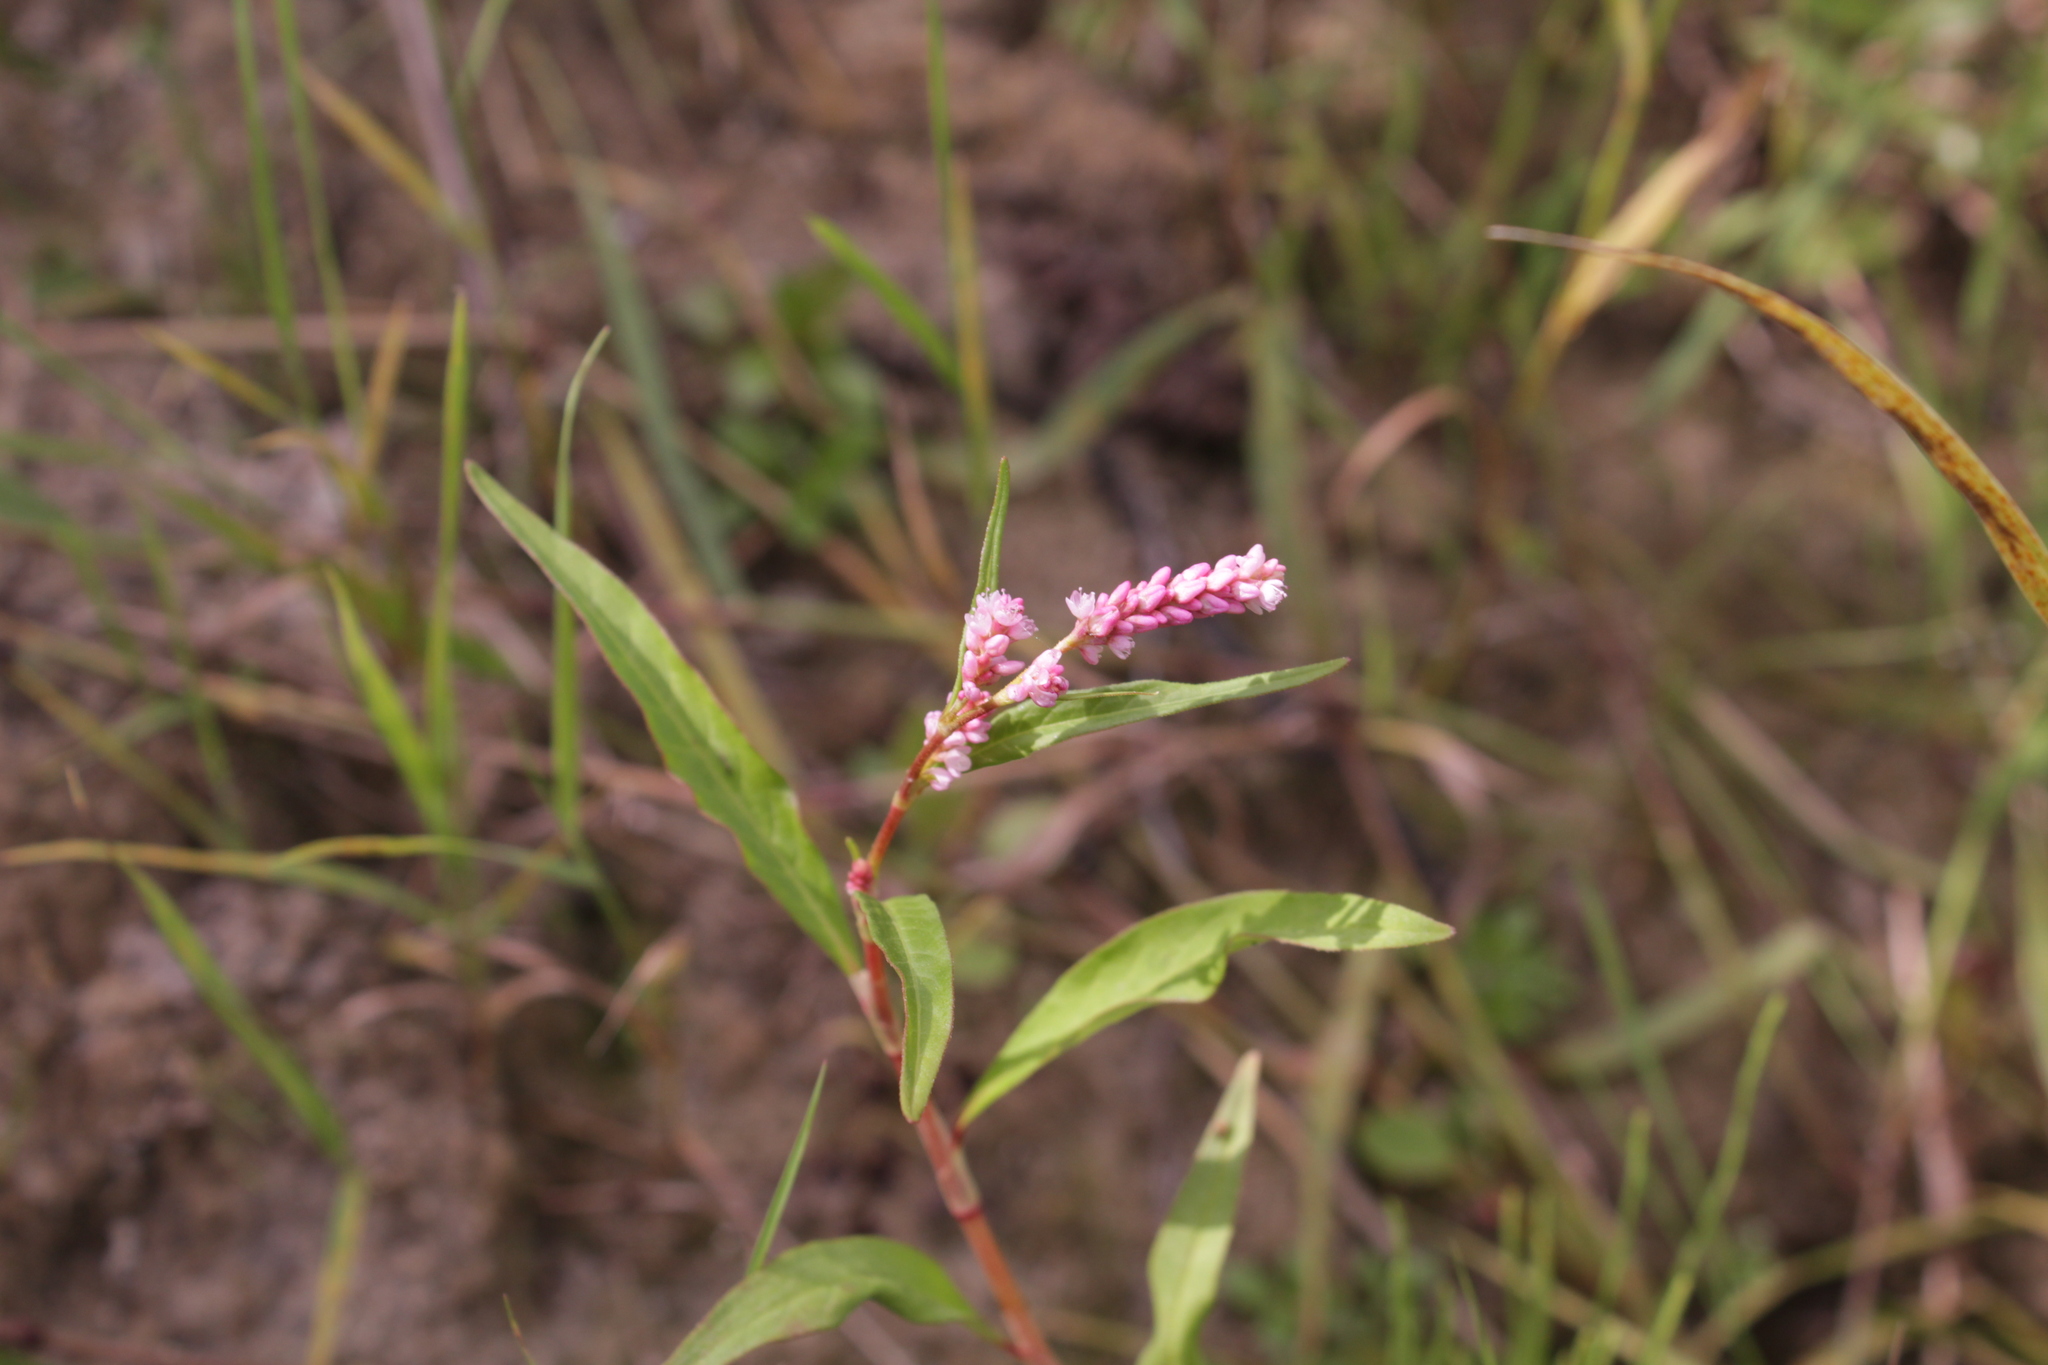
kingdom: Plantae
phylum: Tracheophyta
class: Magnoliopsida
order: Caryophyllales
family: Polygonaceae
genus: Persicaria
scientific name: Persicaria maculosa
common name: Redshank
